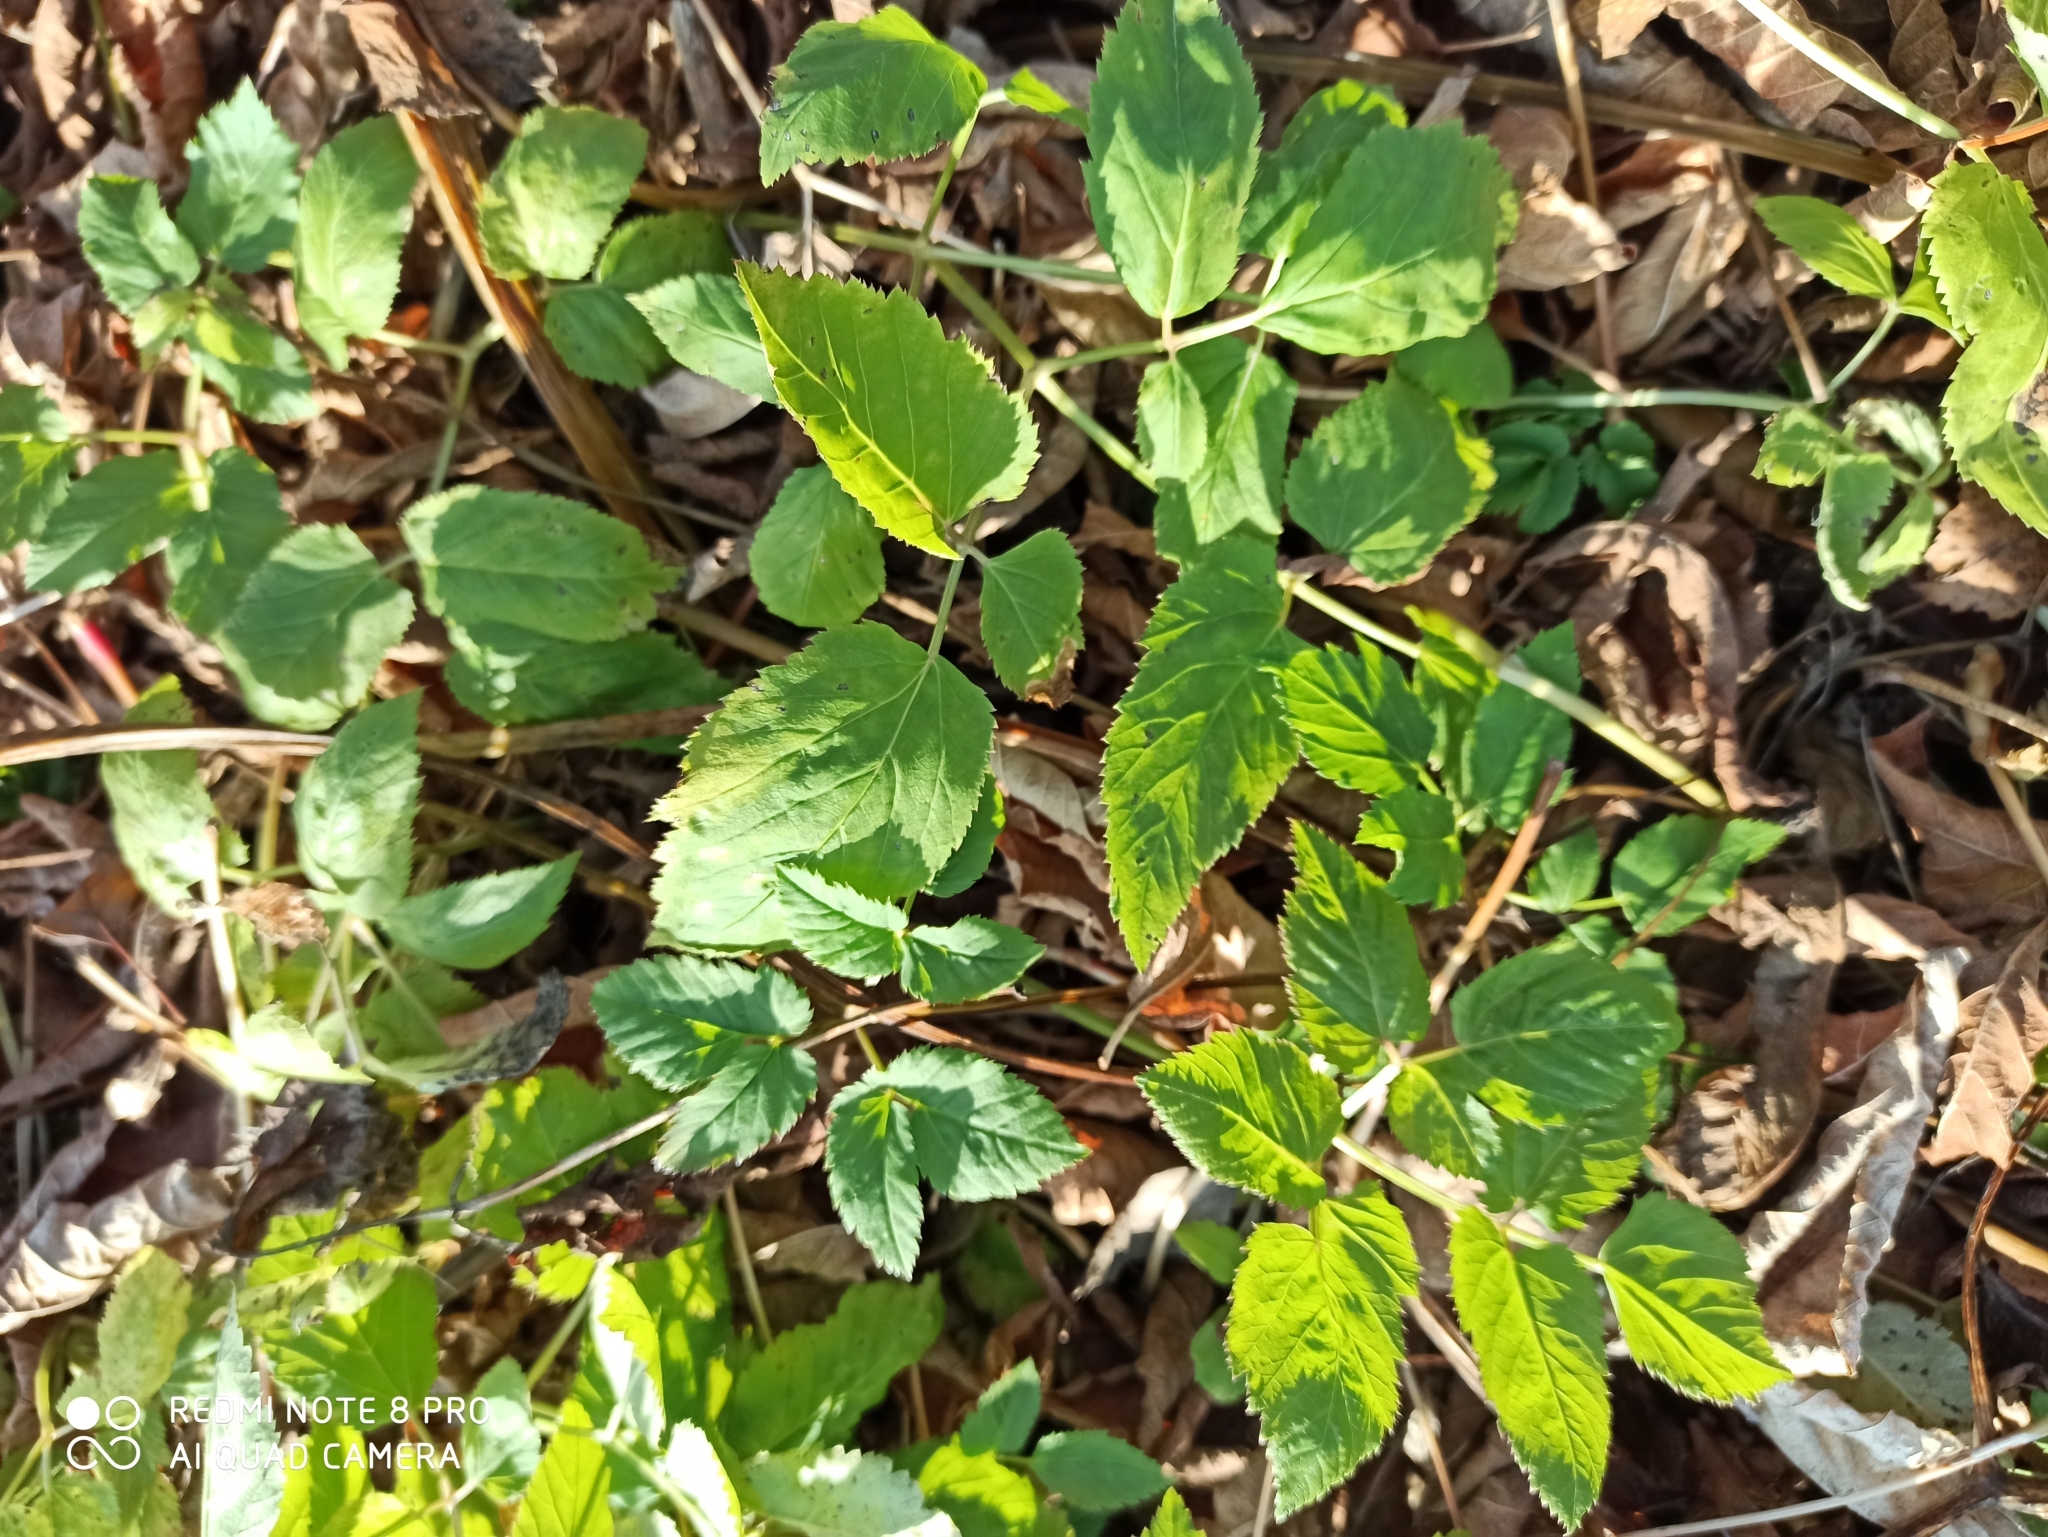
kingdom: Plantae
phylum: Tracheophyta
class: Magnoliopsida
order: Apiales
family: Apiaceae
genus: Aegopodium
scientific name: Aegopodium podagraria
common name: Ground-elder
